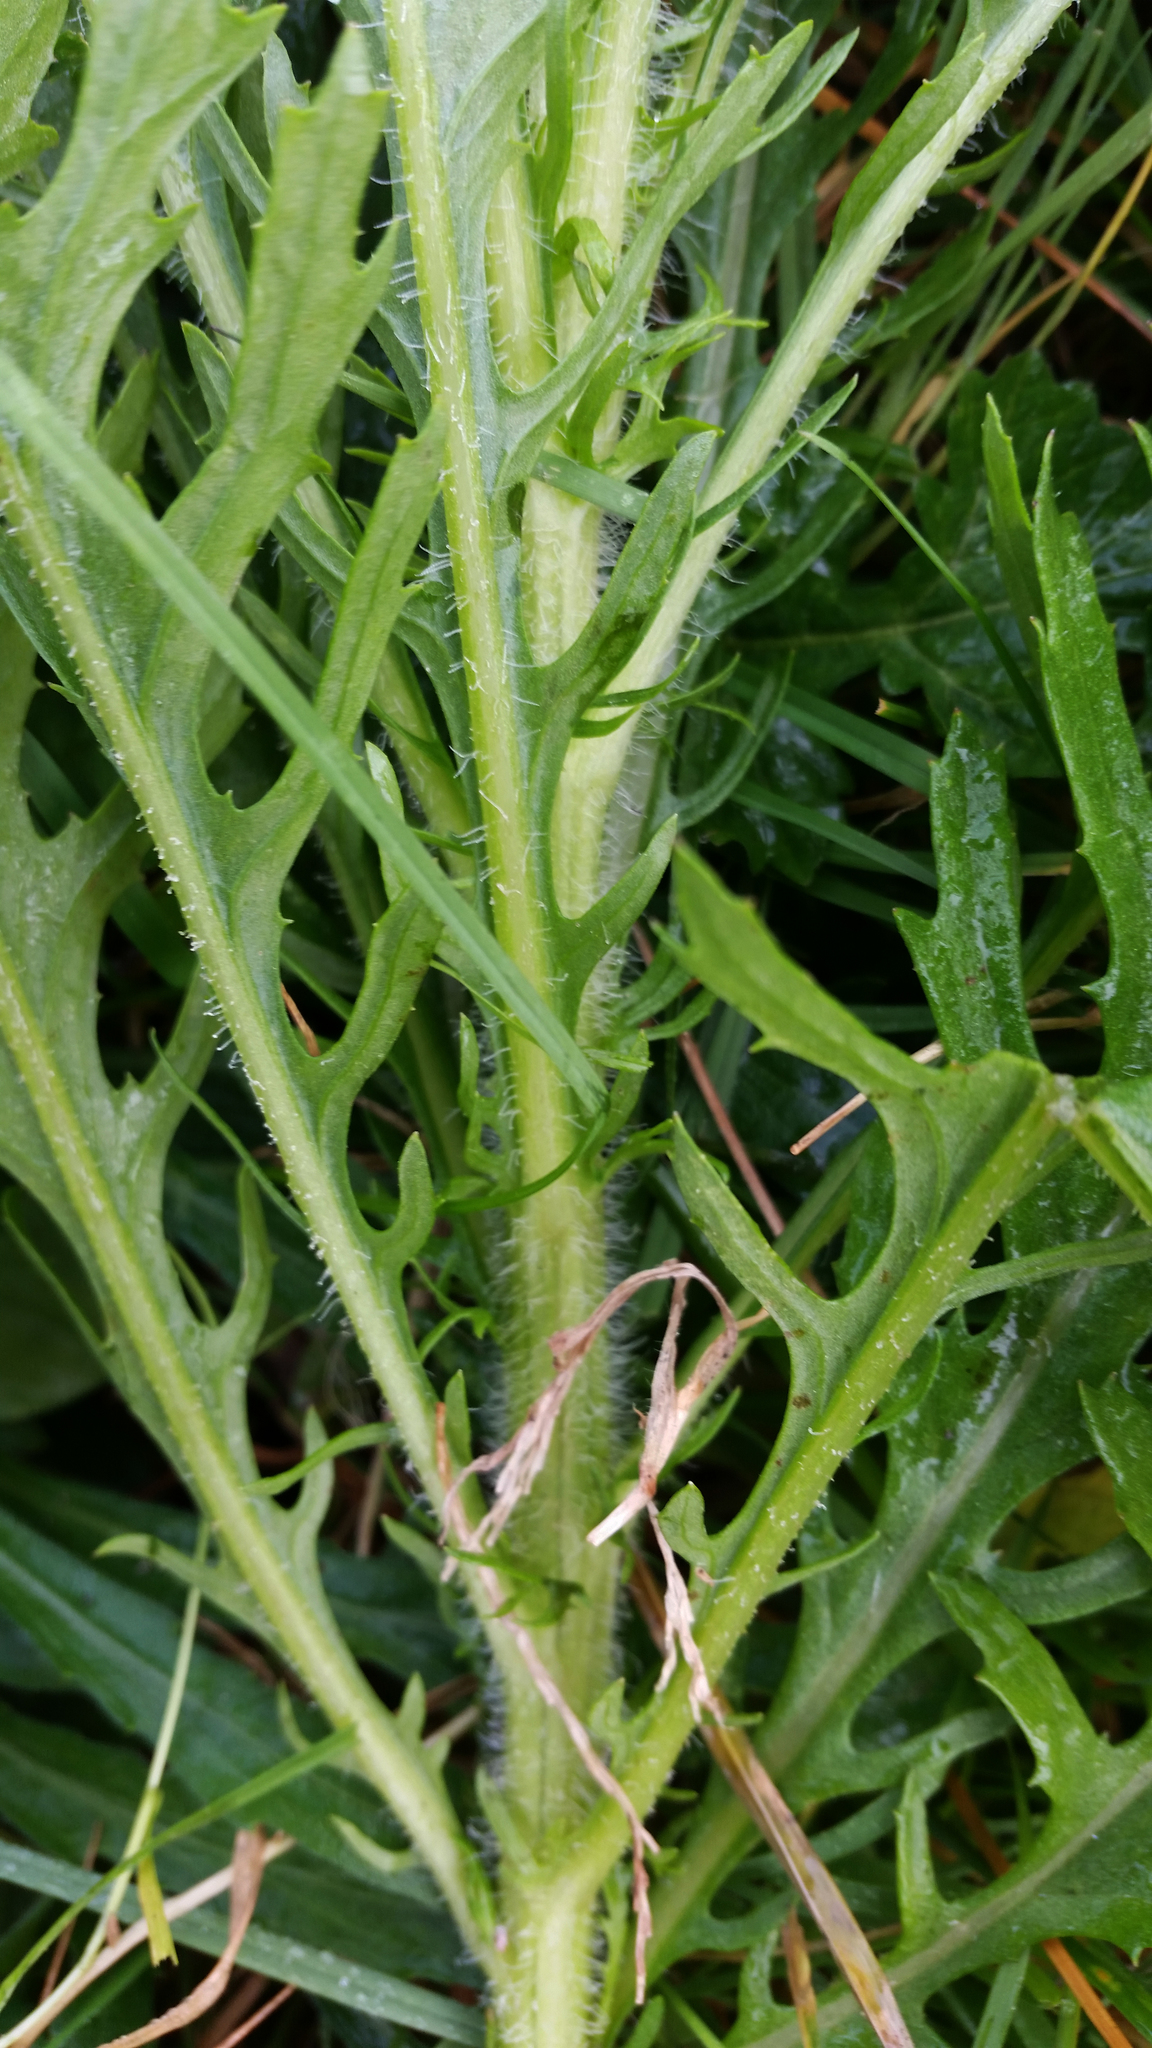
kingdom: Plantae
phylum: Tracheophyta
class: Magnoliopsida
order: Asterales
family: Asteraceae
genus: Senecio
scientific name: Senecio esleri
